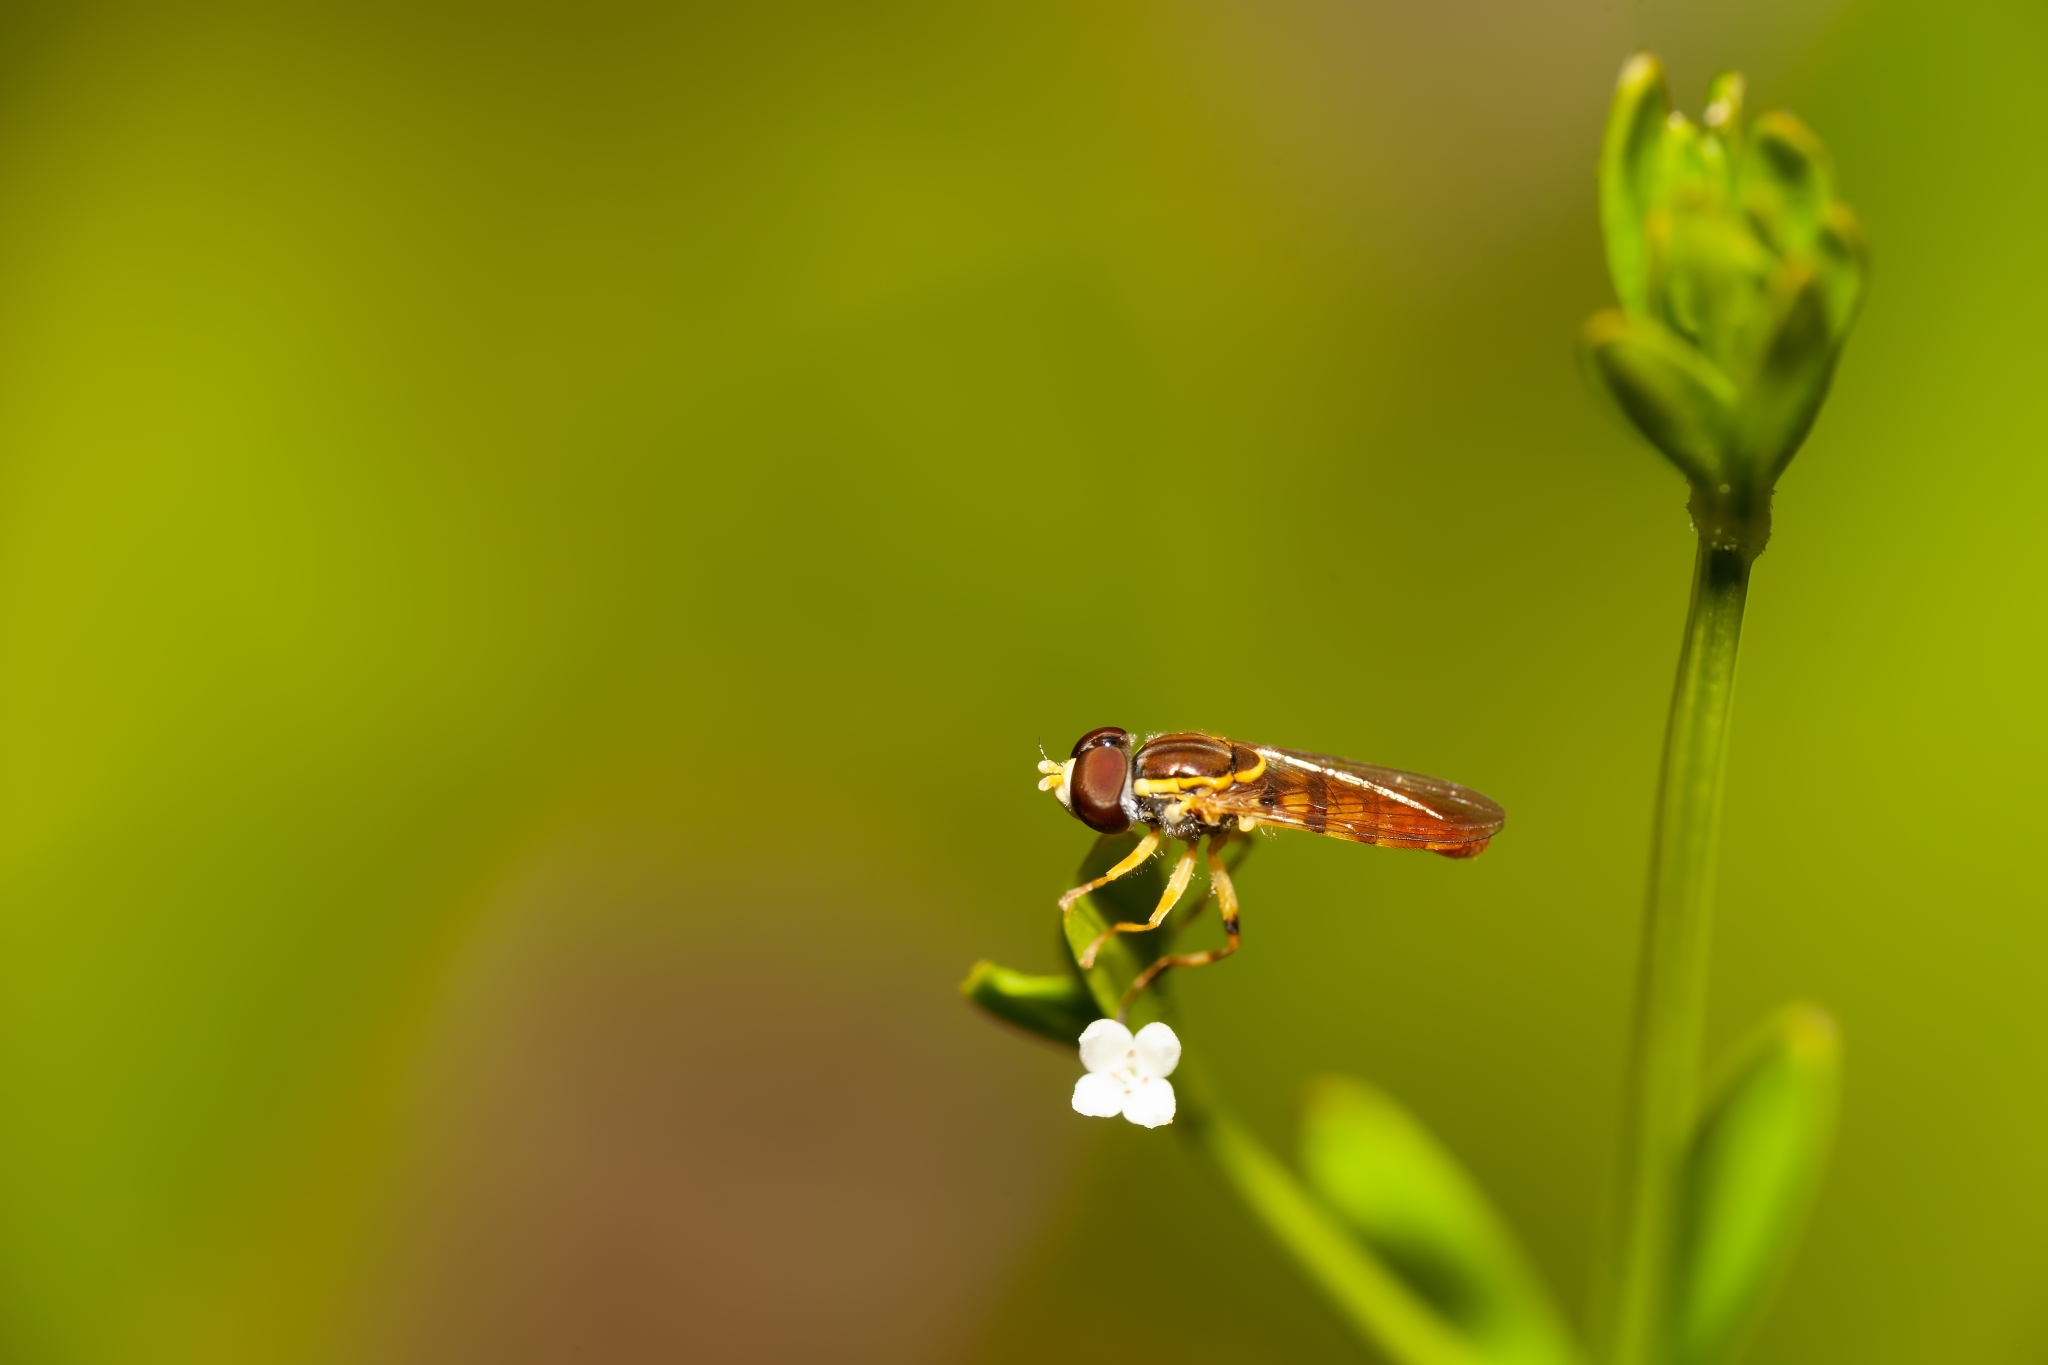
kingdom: Animalia
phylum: Arthropoda
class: Insecta
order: Diptera
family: Syrphidae
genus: Toxomerus
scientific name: Toxomerus floralis
